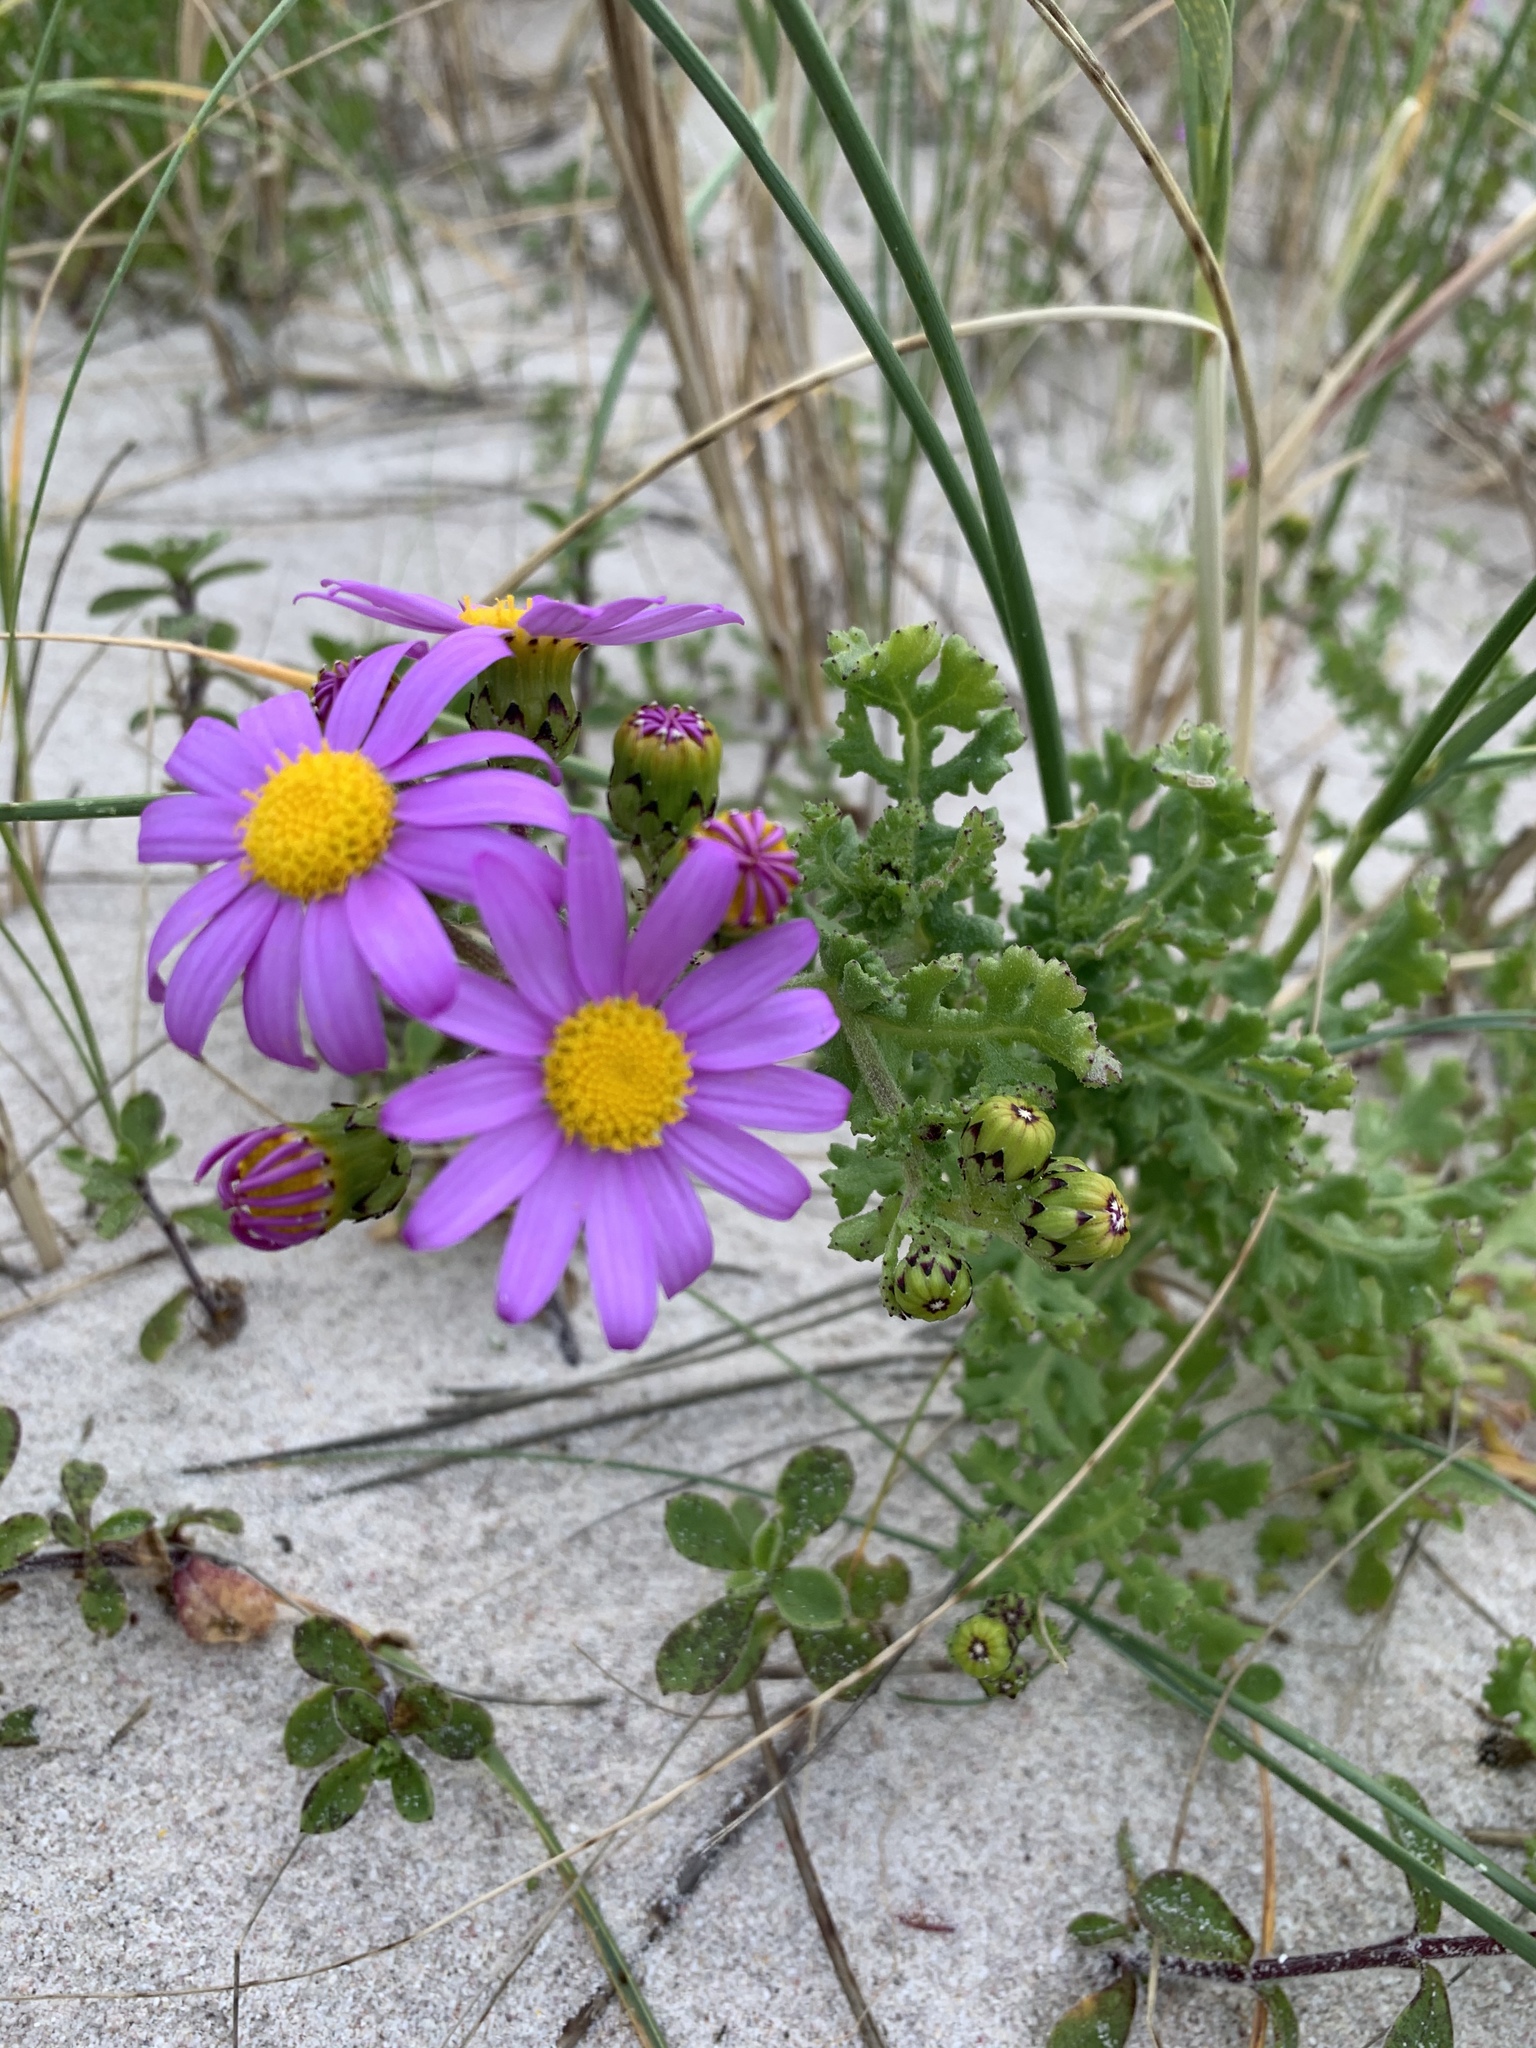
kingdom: Plantae
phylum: Tracheophyta
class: Magnoliopsida
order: Asterales
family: Asteraceae
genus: Senecio
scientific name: Senecio elegans
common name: Purple groundsel
